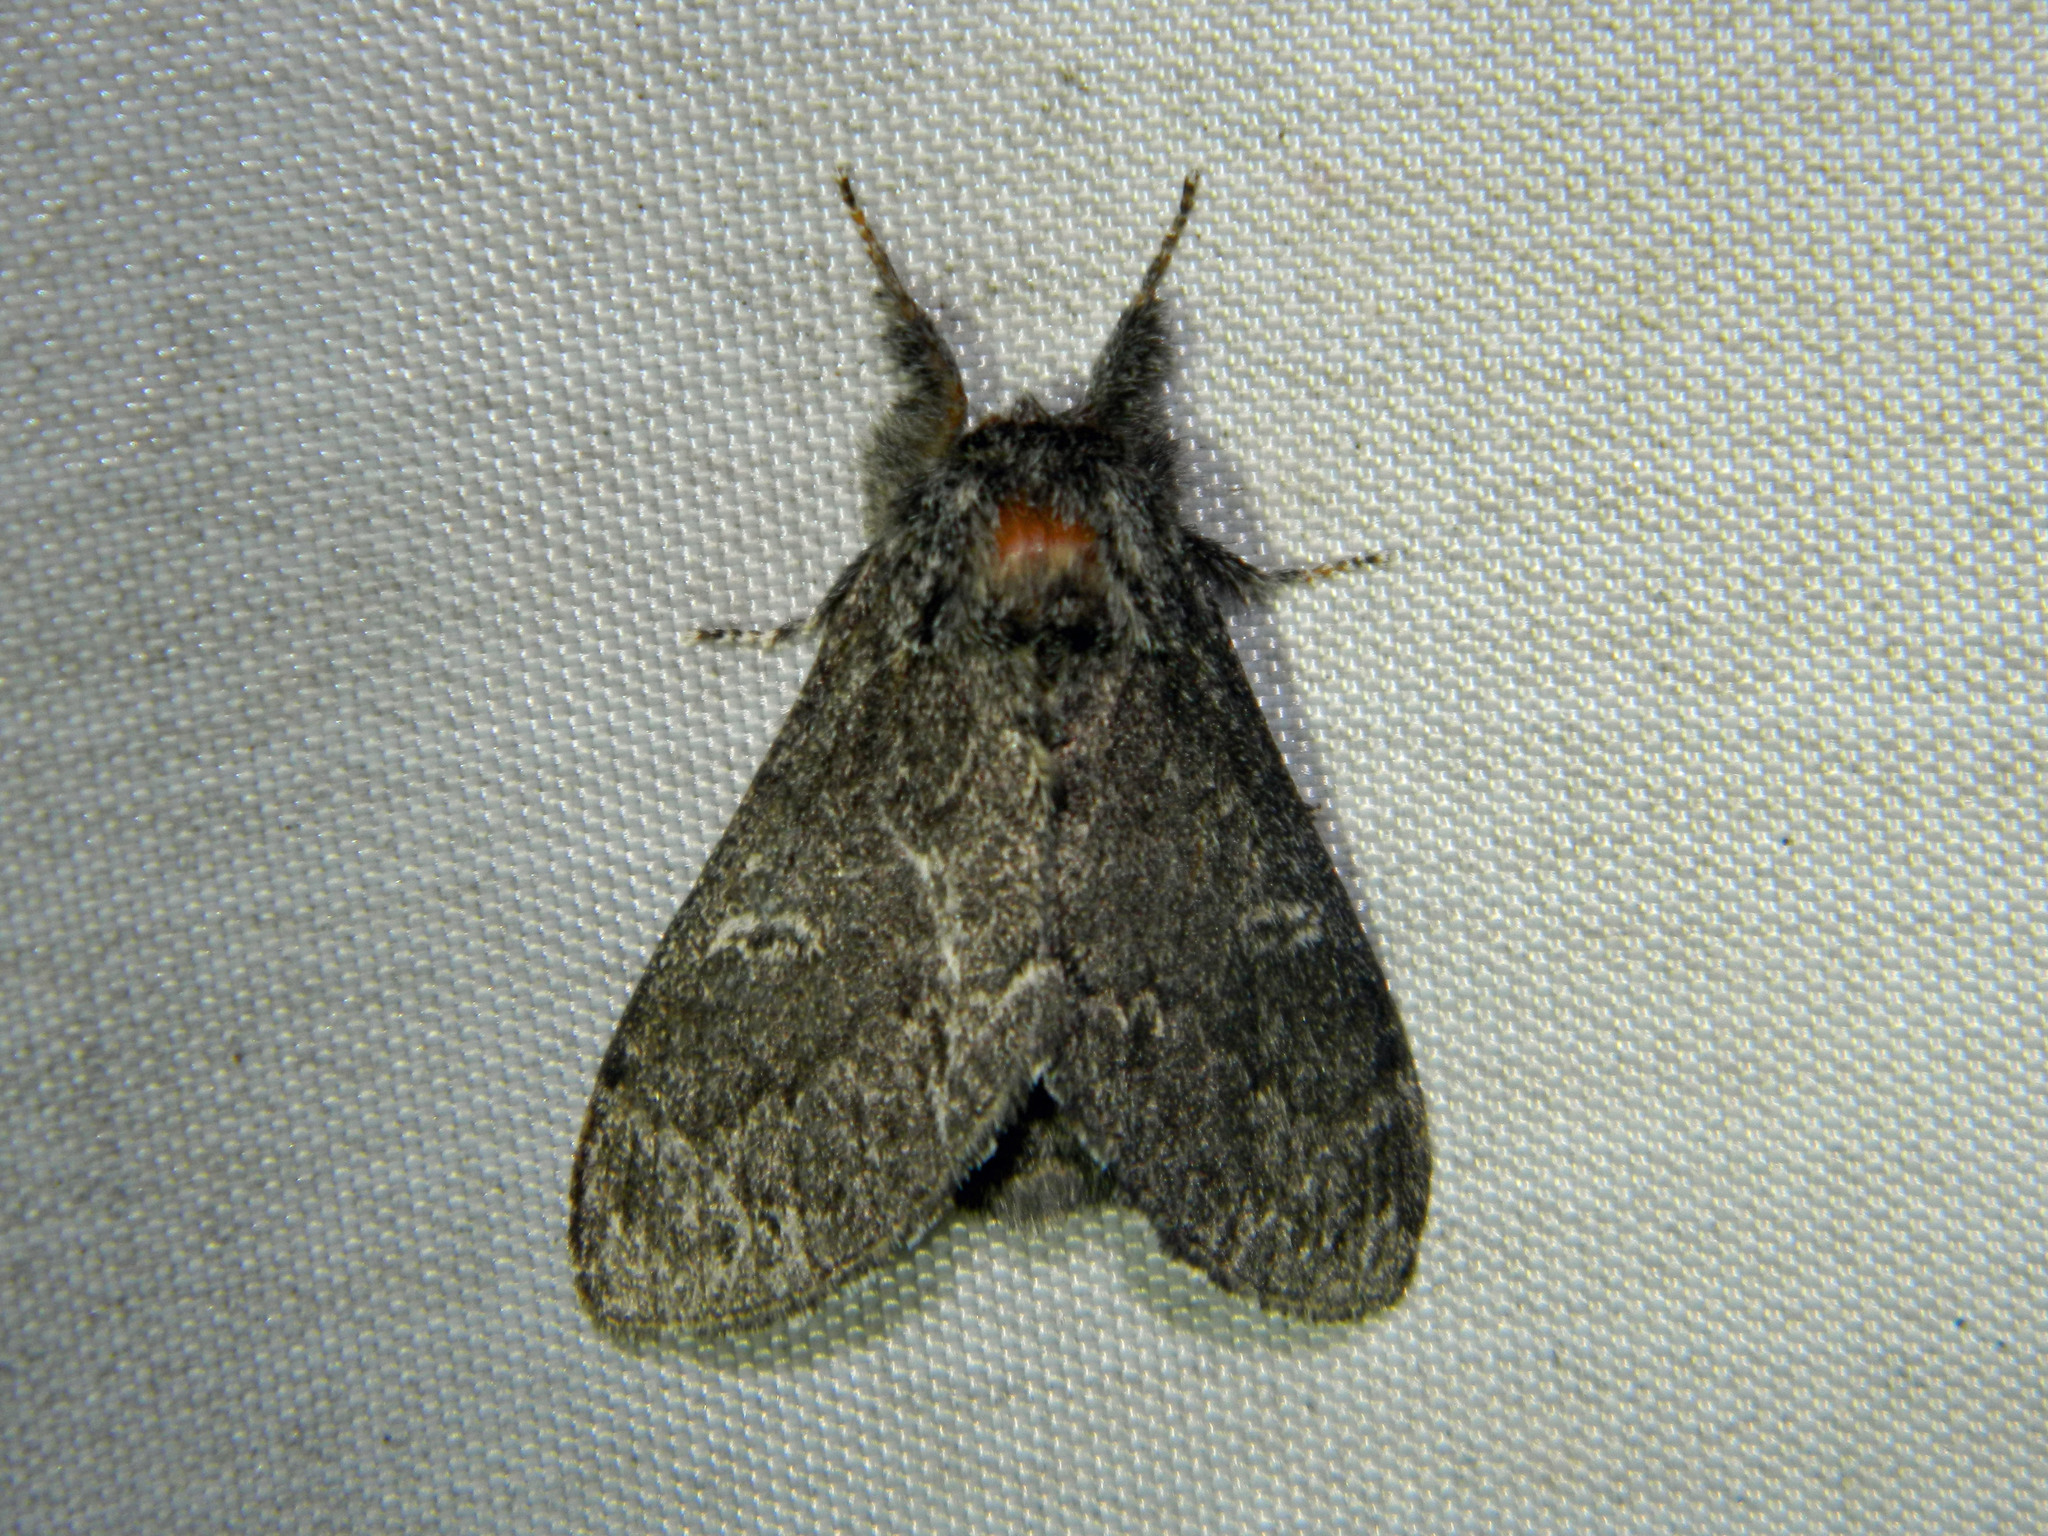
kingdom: Animalia
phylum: Arthropoda
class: Insecta
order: Lepidoptera
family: Notodontidae
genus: Notodonta
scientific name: Notodonta torva
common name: Large dark prominent
